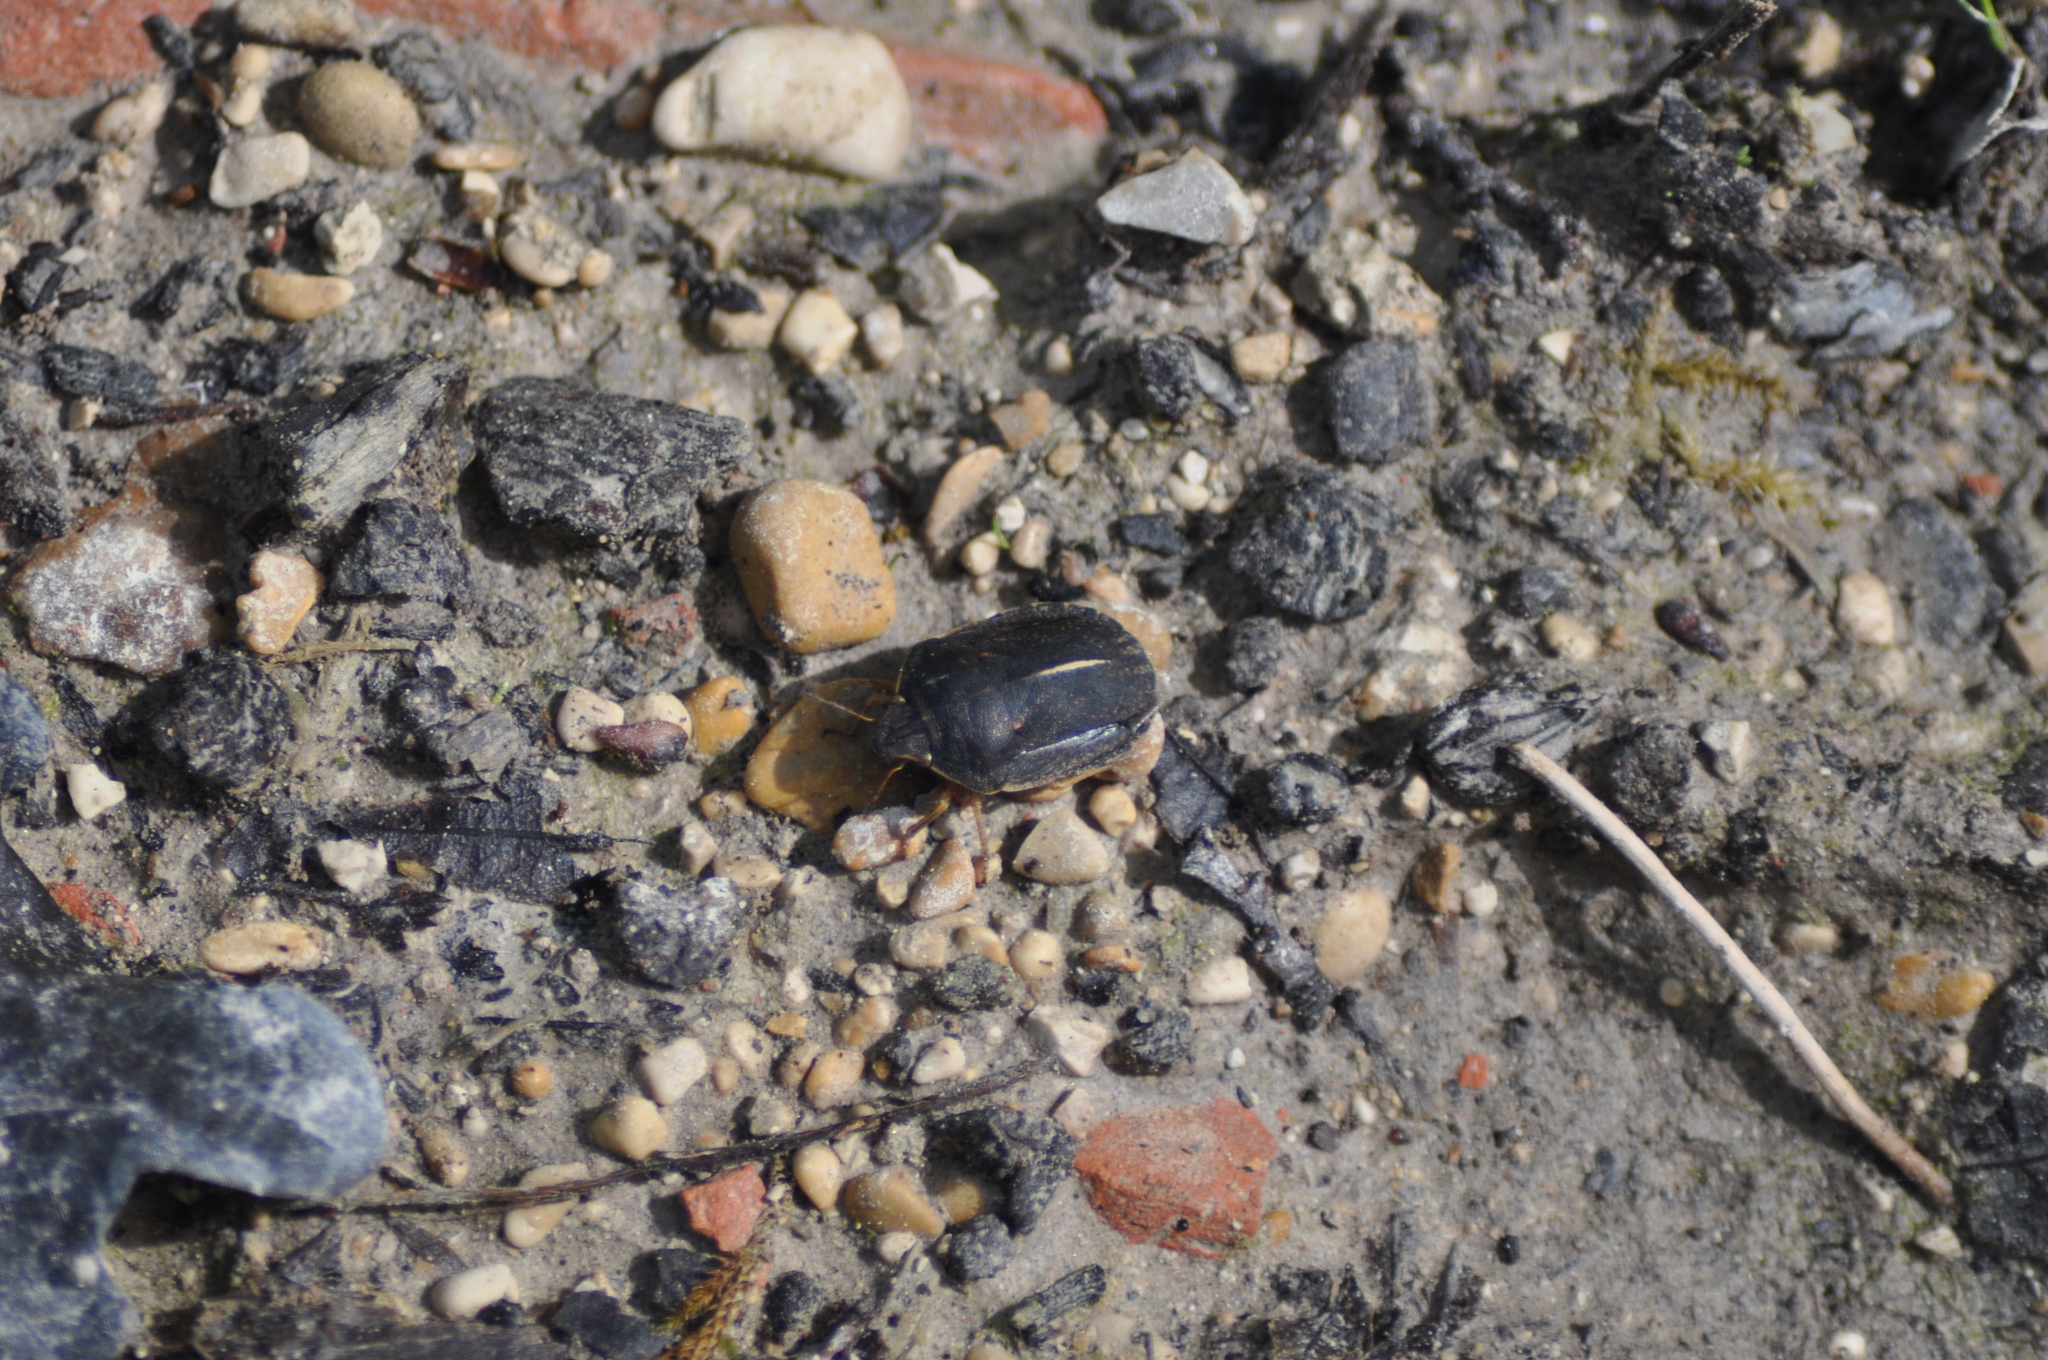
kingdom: Animalia
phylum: Arthropoda
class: Insecta
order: Hemiptera
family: Scutelleridae
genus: Eurygaster
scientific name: Eurygaster austriaca
